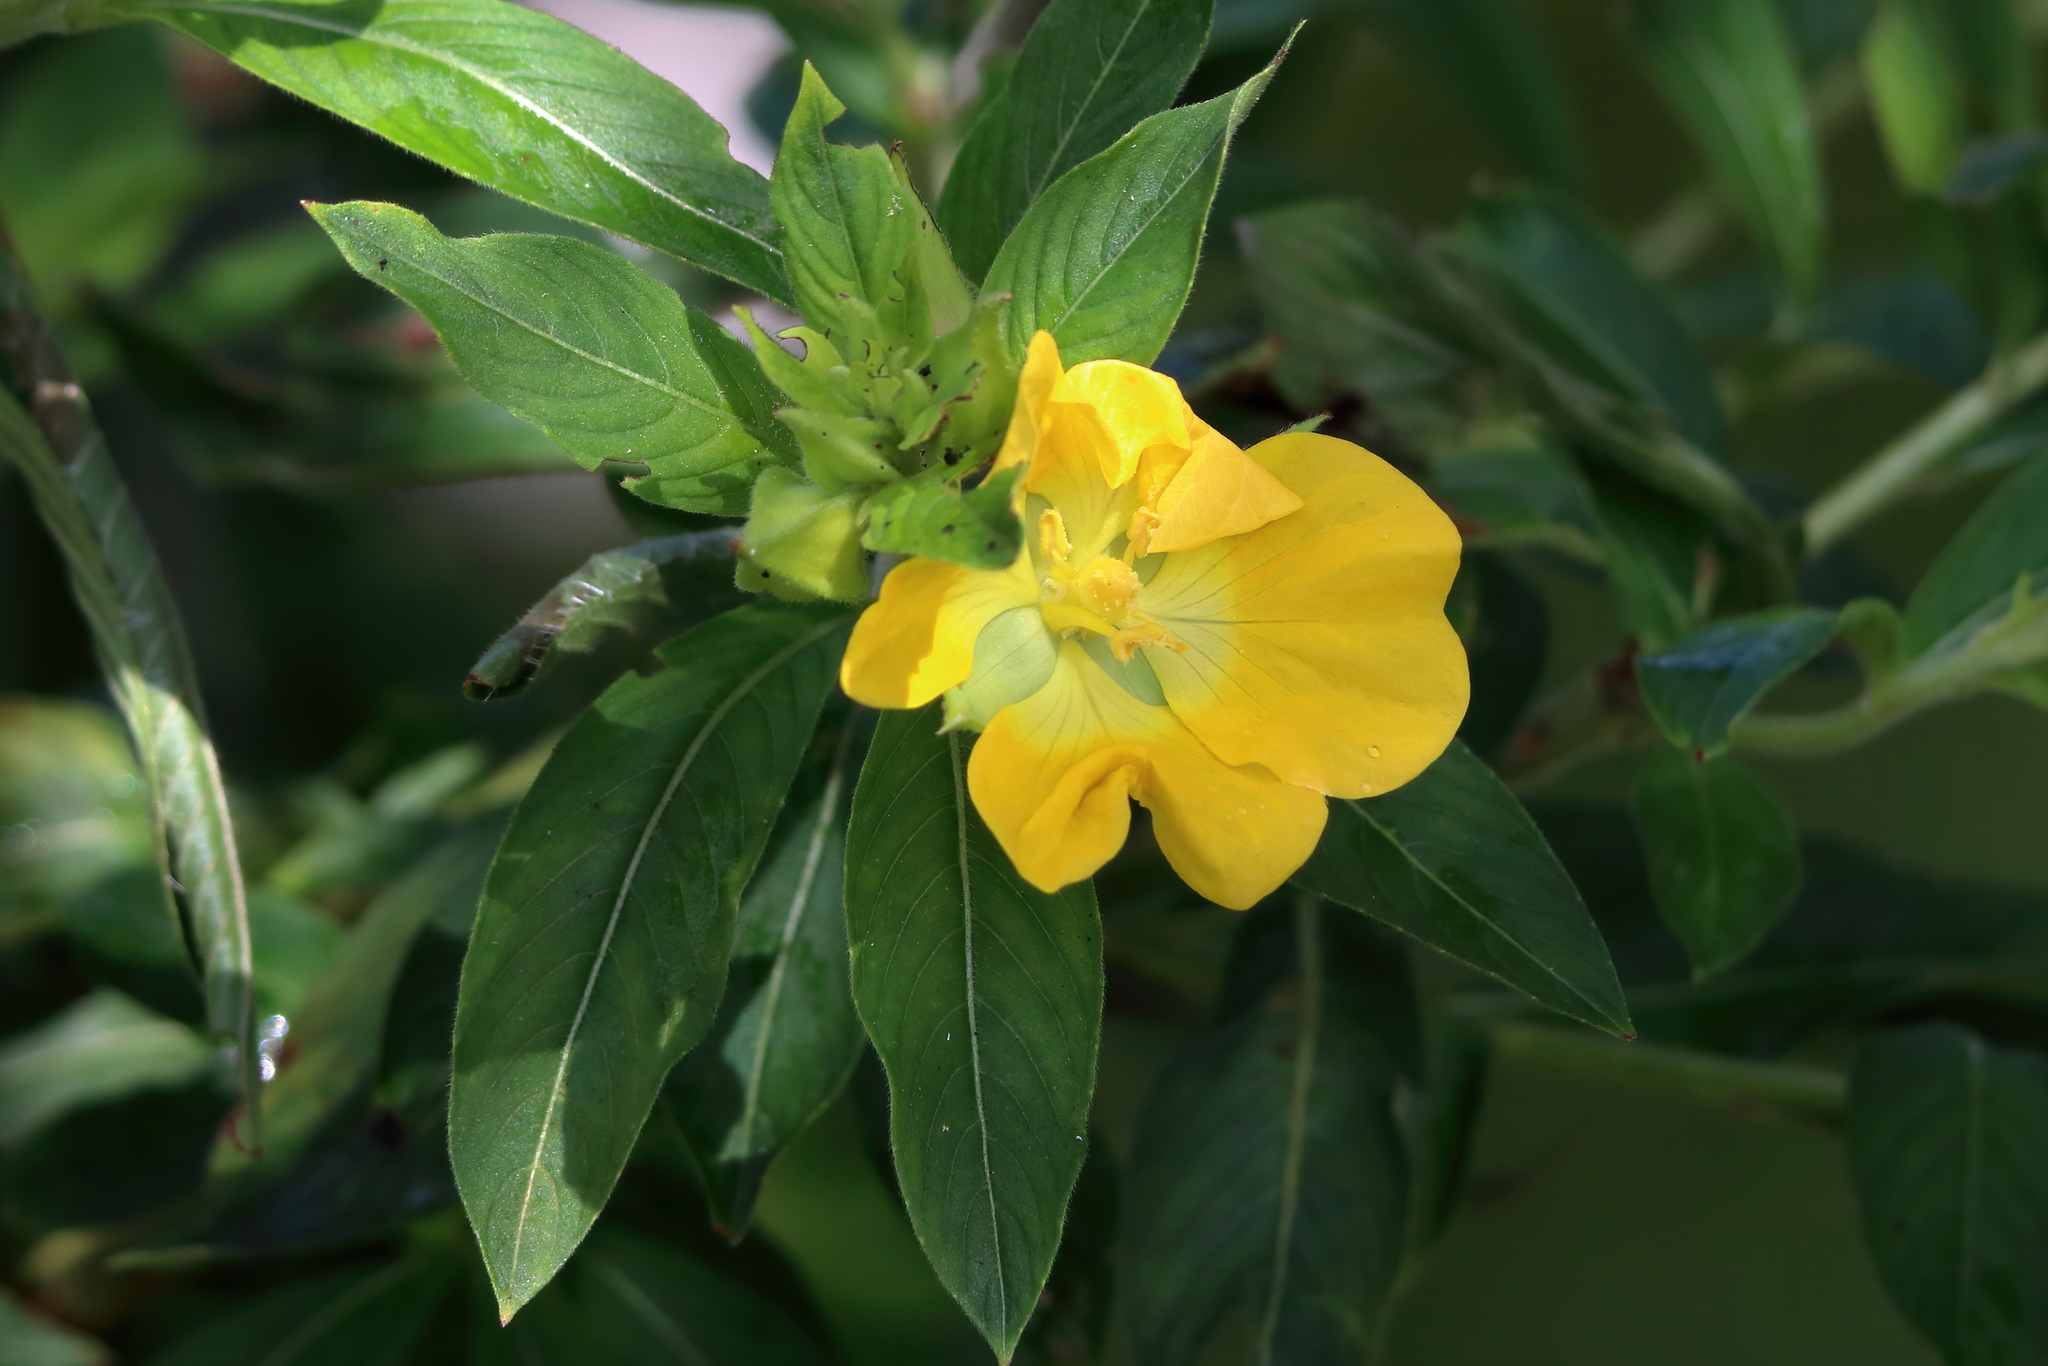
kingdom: Plantae
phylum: Tracheophyta
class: Magnoliopsida
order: Myrtales
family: Onagraceae
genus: Ludwigia
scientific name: Ludwigia peruviana
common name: Peruvian primrose-willow
